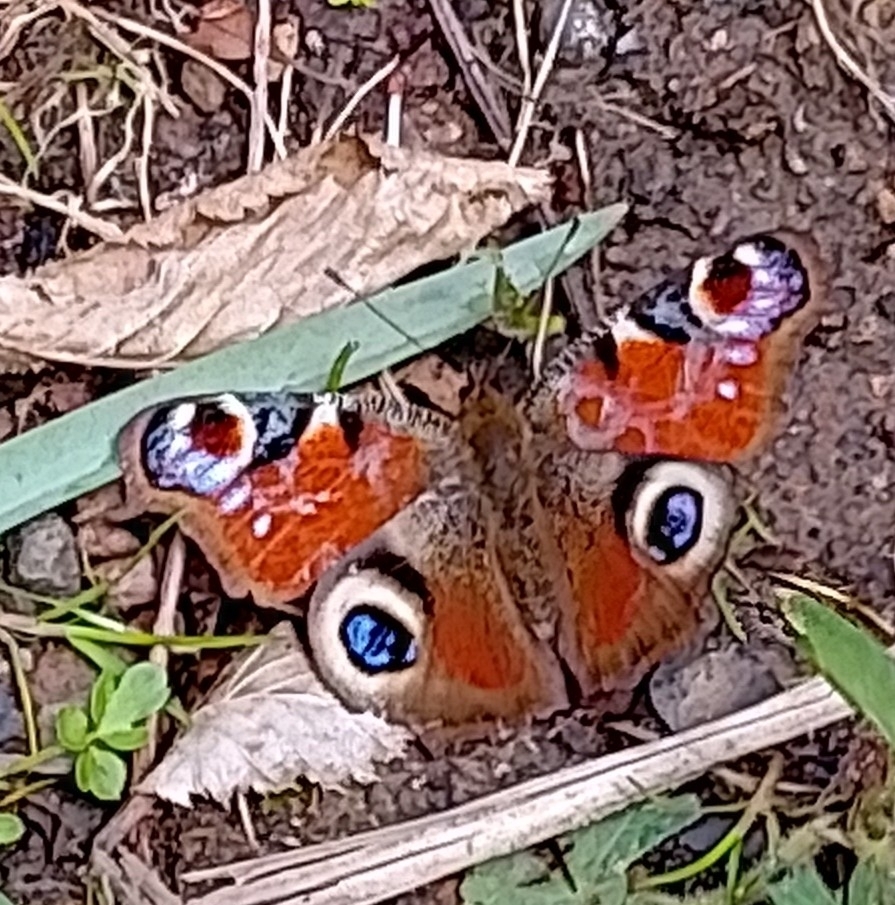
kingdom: Animalia
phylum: Arthropoda
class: Insecta
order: Lepidoptera
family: Nymphalidae
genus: Aglais
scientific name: Aglais io
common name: Peacock
